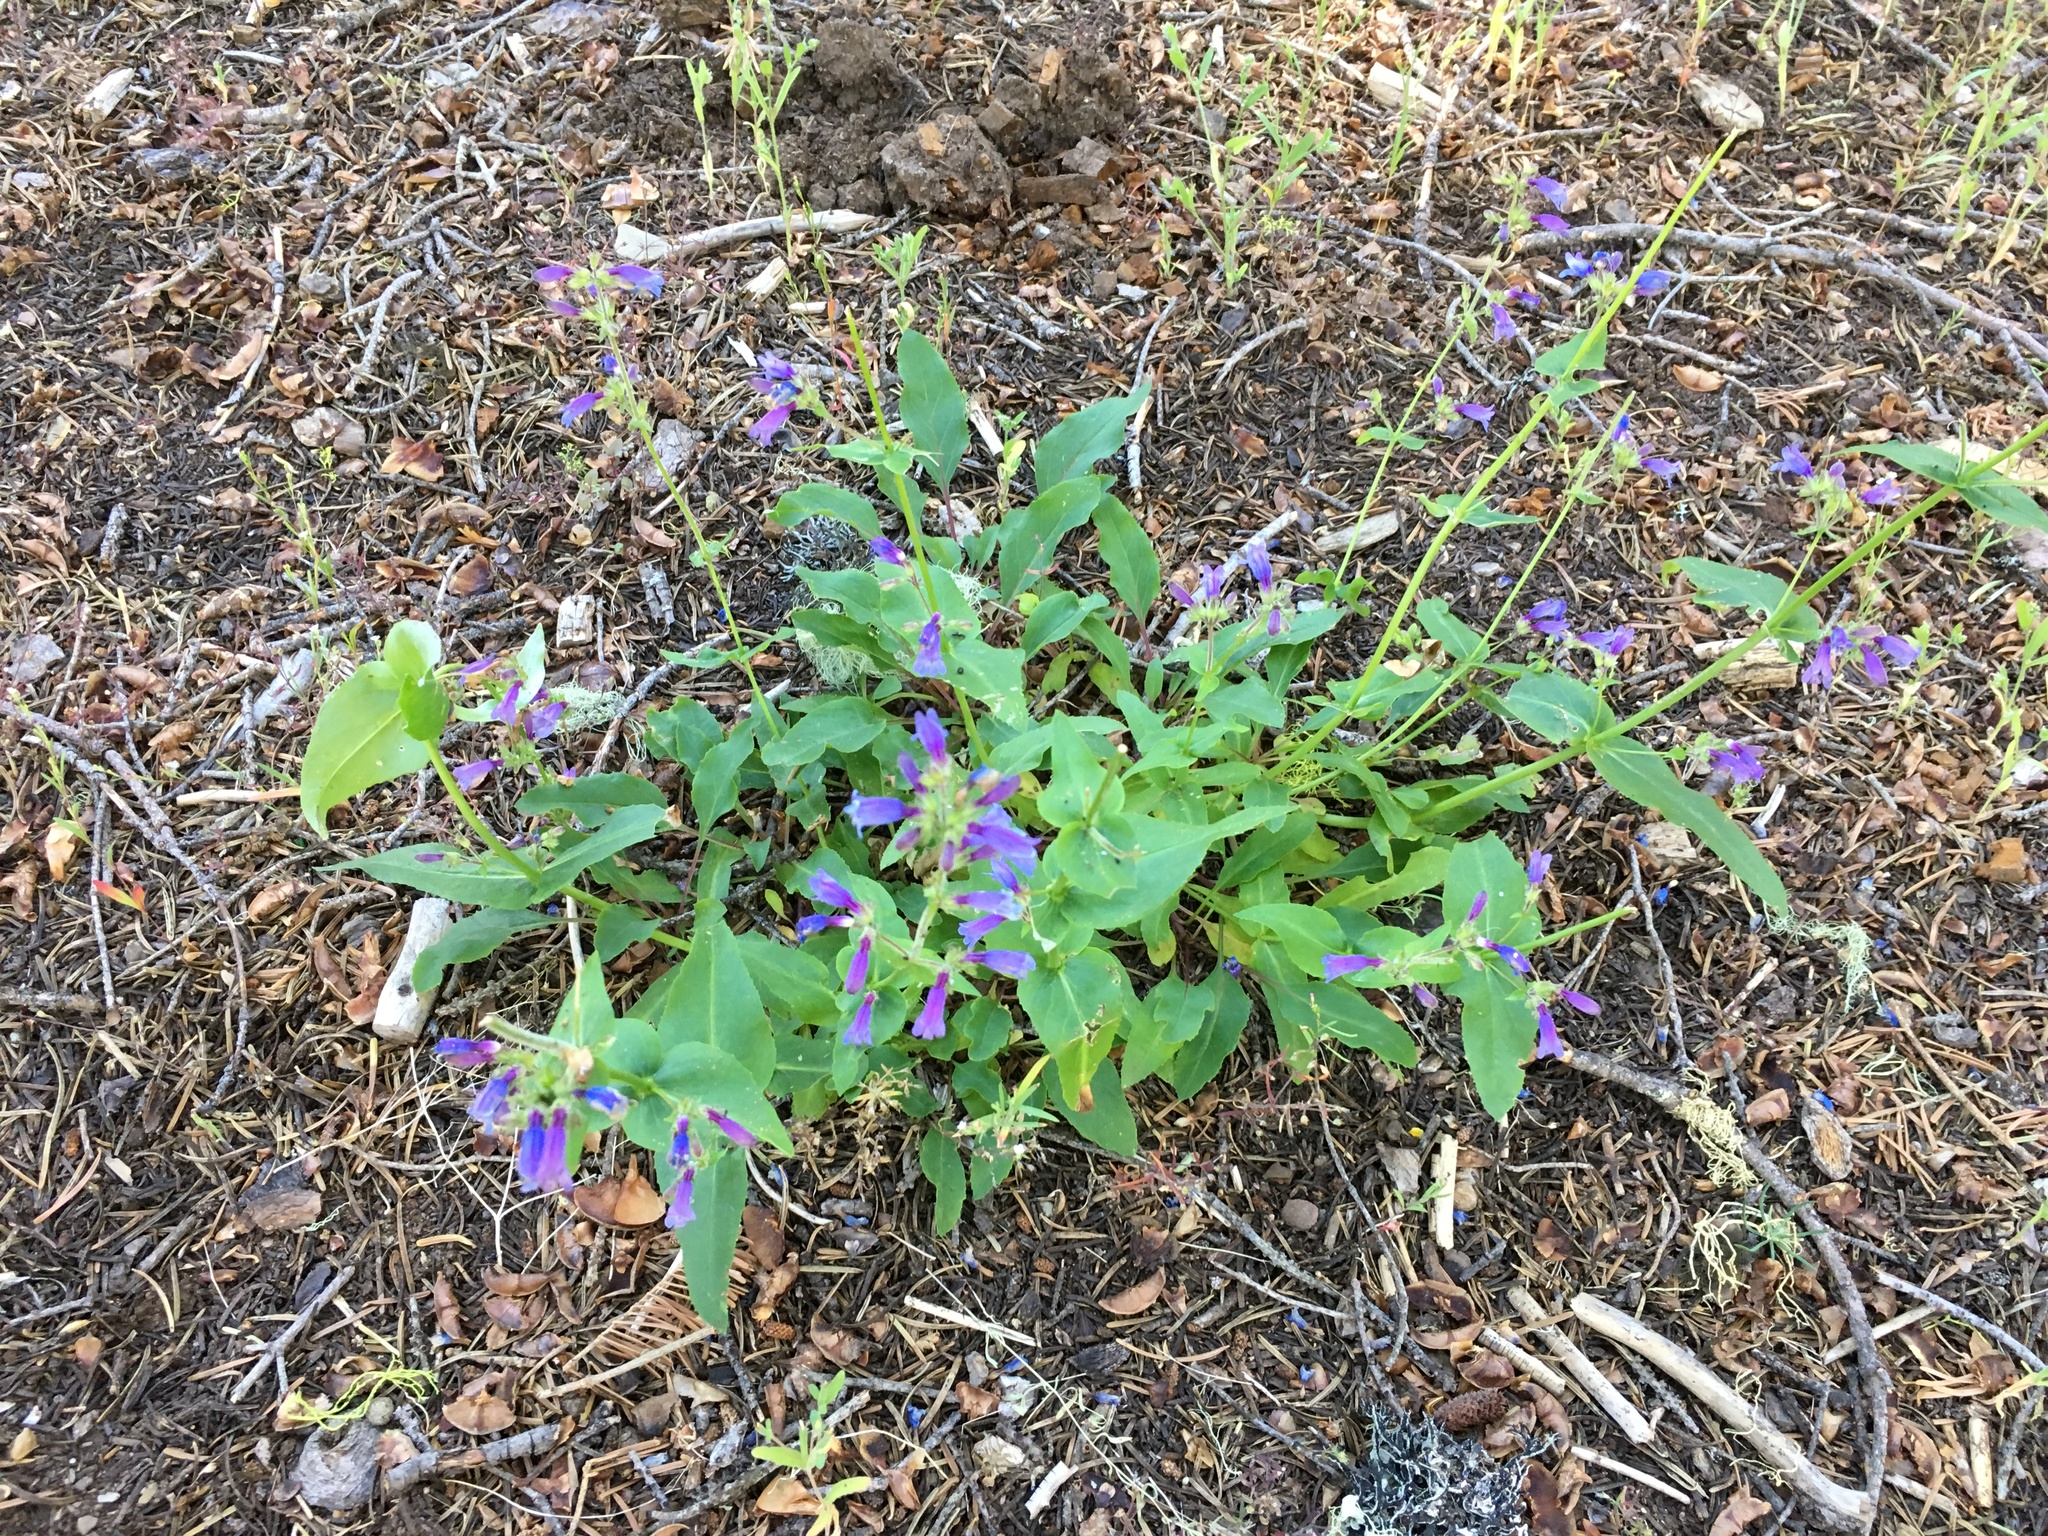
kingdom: Plantae
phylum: Tracheophyta
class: Magnoliopsida
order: Lamiales
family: Plantaginaceae
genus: Penstemon
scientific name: Penstemon anguineus
